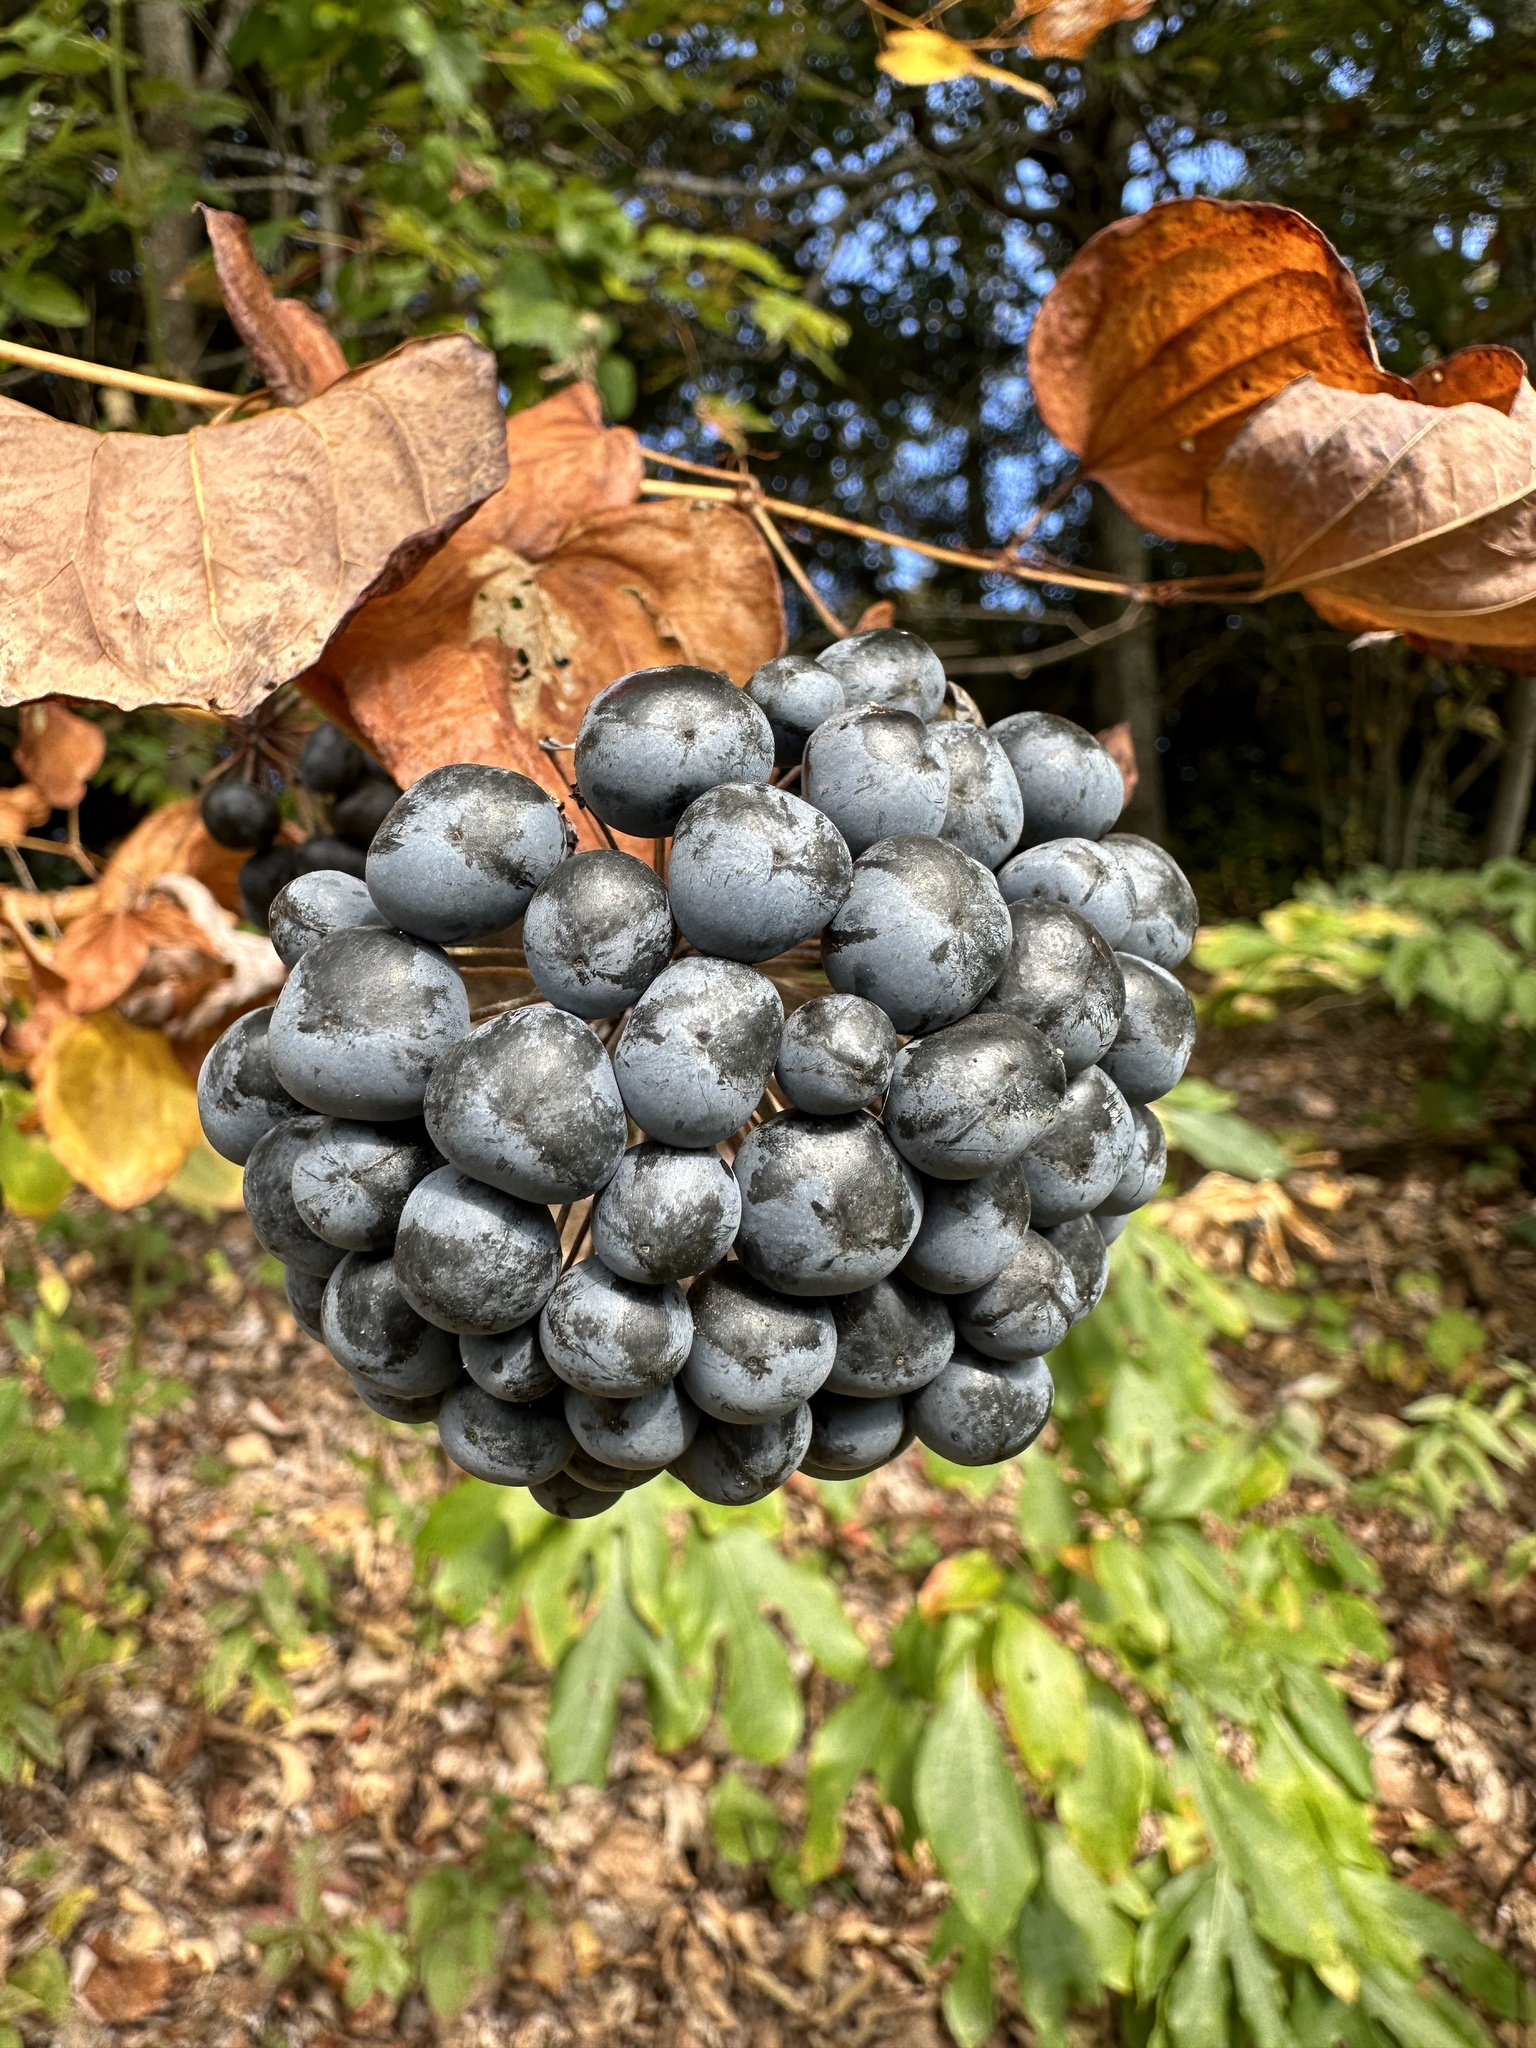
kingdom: Plantae
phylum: Tracheophyta
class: Liliopsida
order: Liliales
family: Smilacaceae
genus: Smilax
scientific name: Smilax herbacea
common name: Jacob's-ladder
